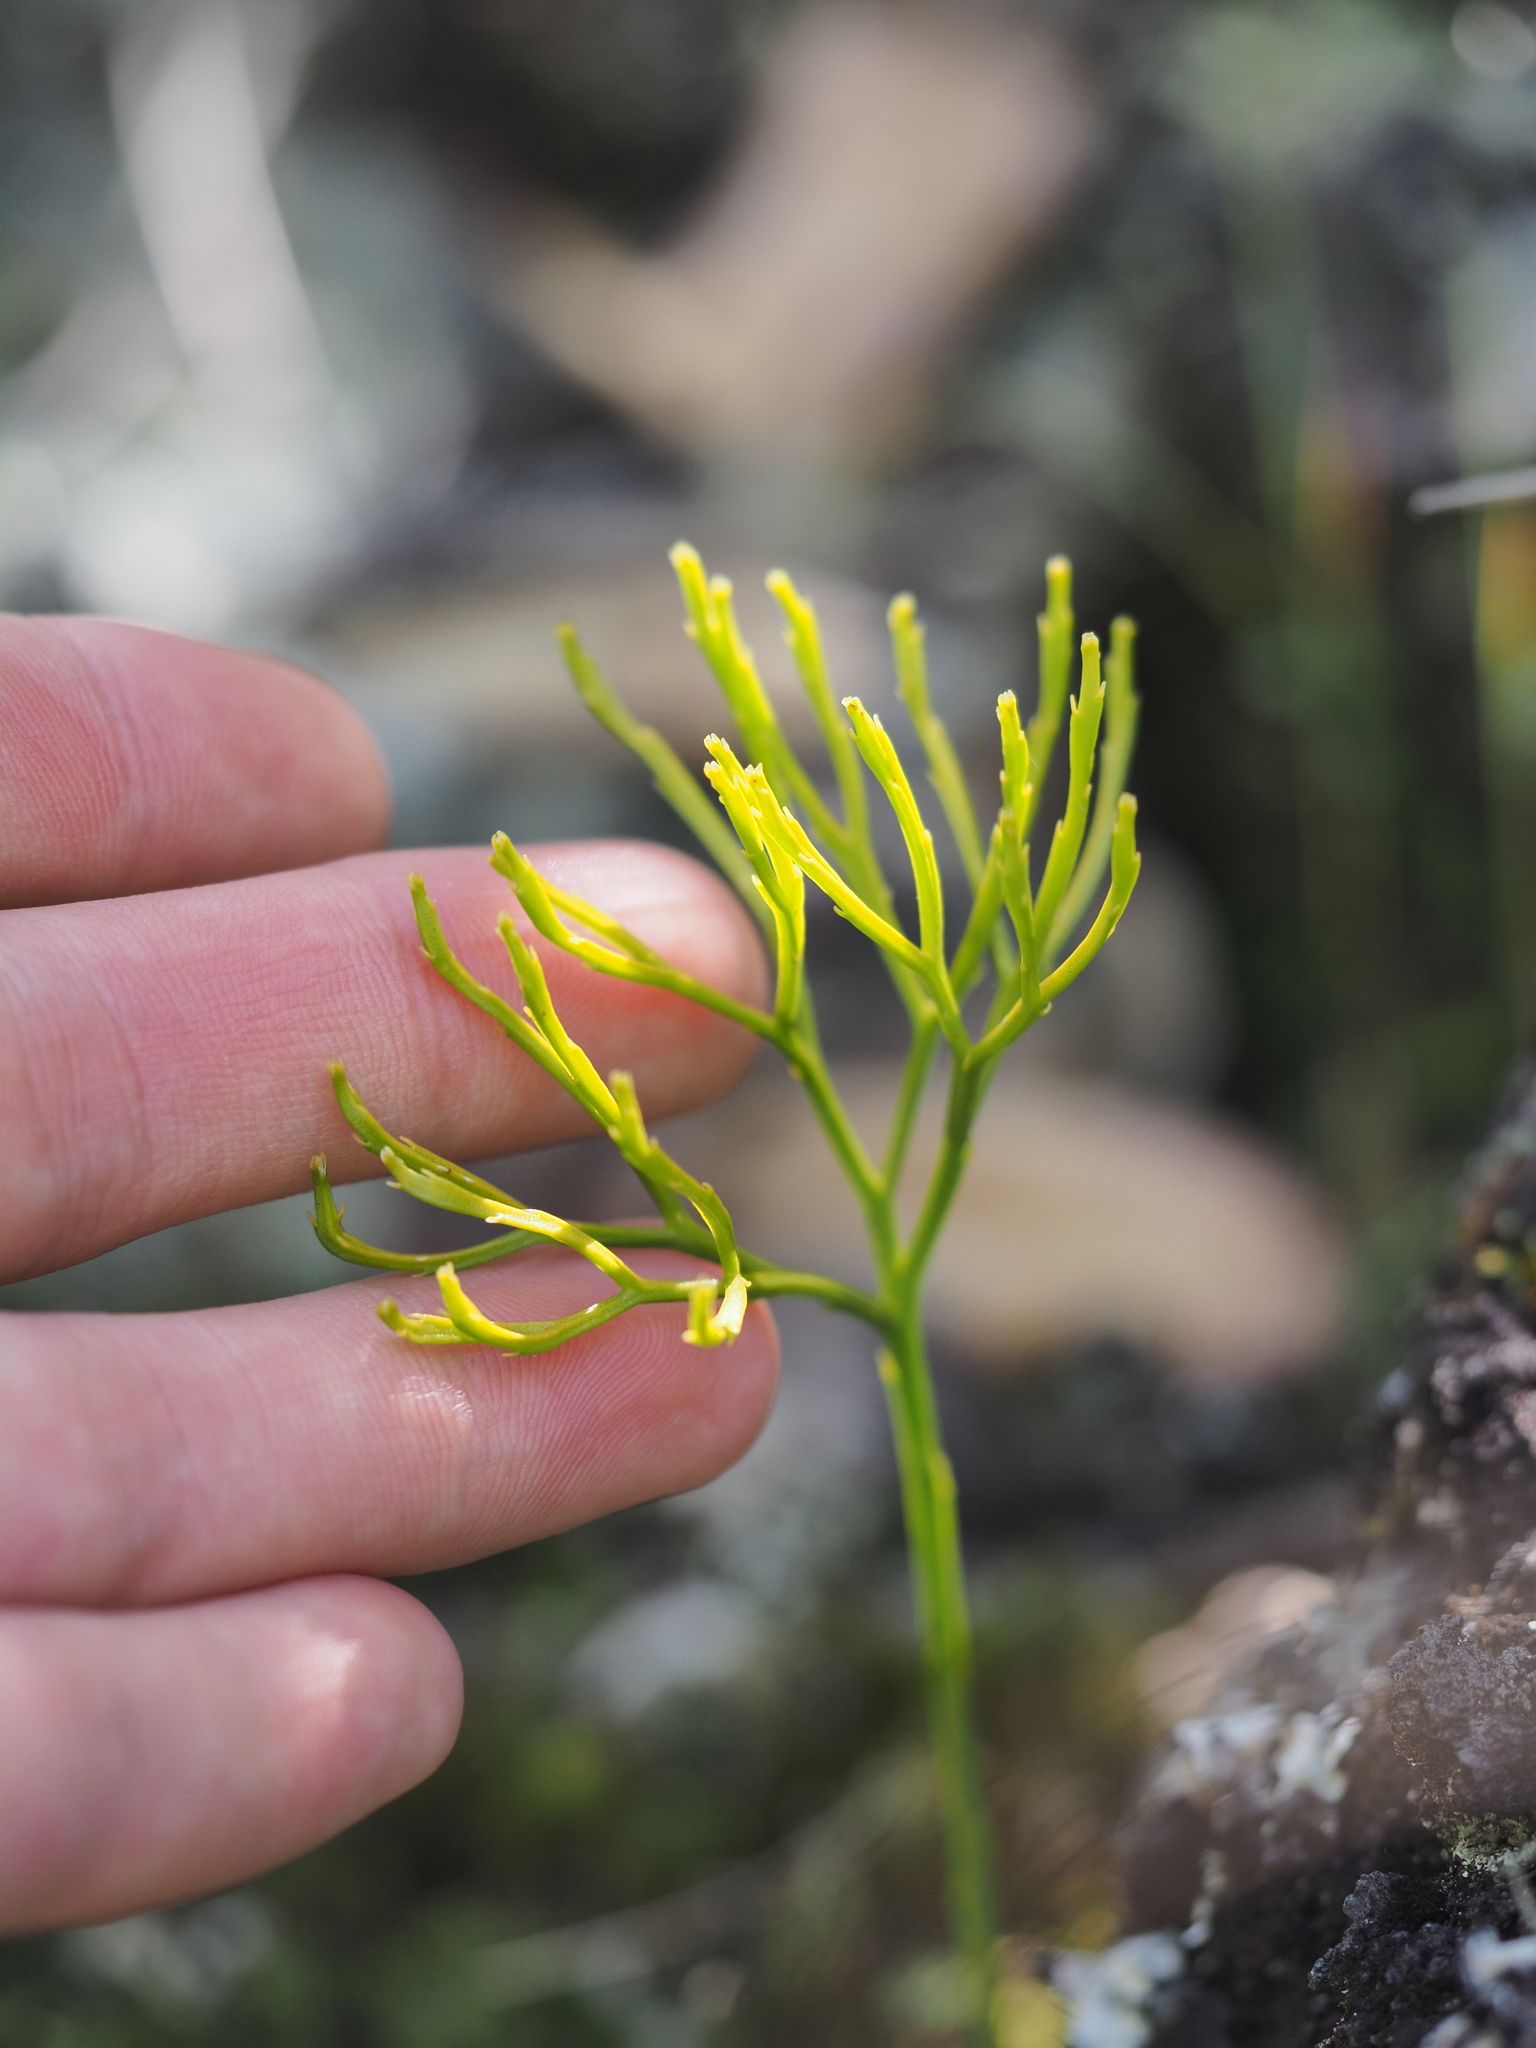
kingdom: Plantae
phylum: Tracheophyta
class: Polypodiopsida
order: Psilotales
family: Psilotaceae
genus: Psilotum
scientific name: Psilotum nudum
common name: Skeleton fork fern
